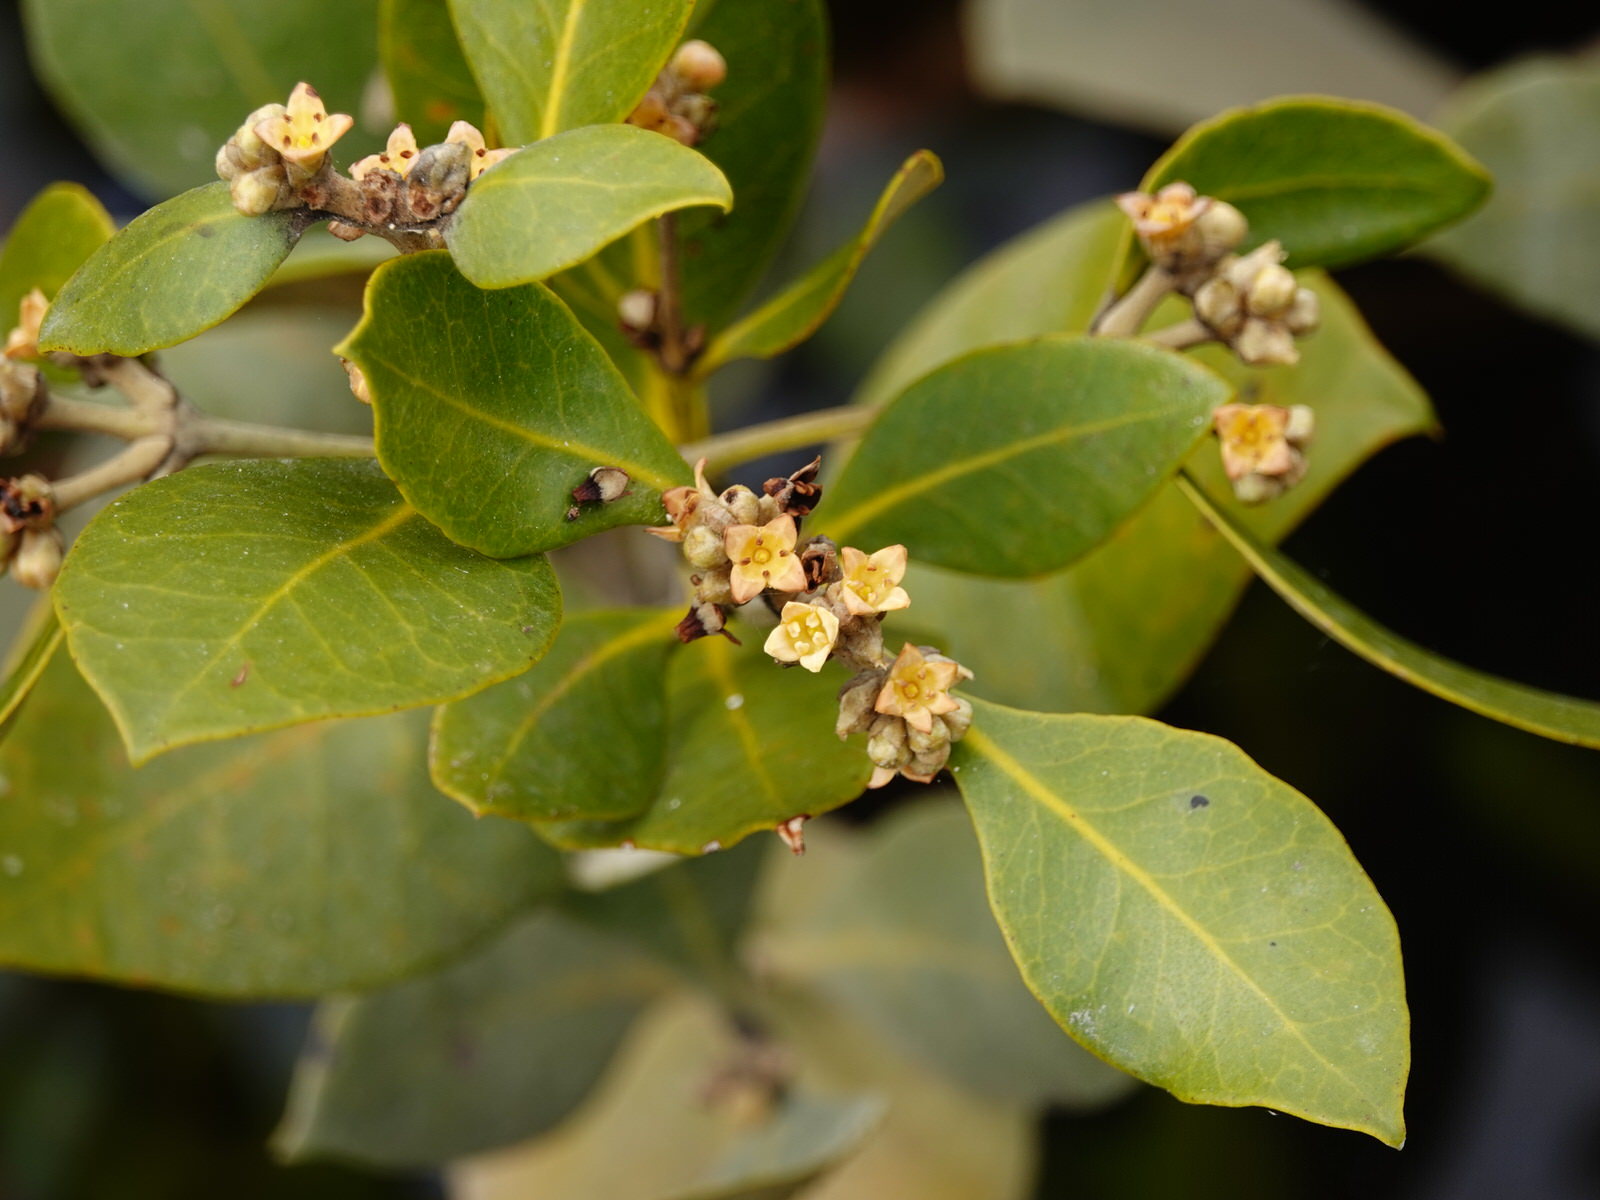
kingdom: Plantae
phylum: Tracheophyta
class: Magnoliopsida
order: Lamiales
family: Acanthaceae
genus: Avicennia
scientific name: Avicennia marina
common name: Gray mangrove
